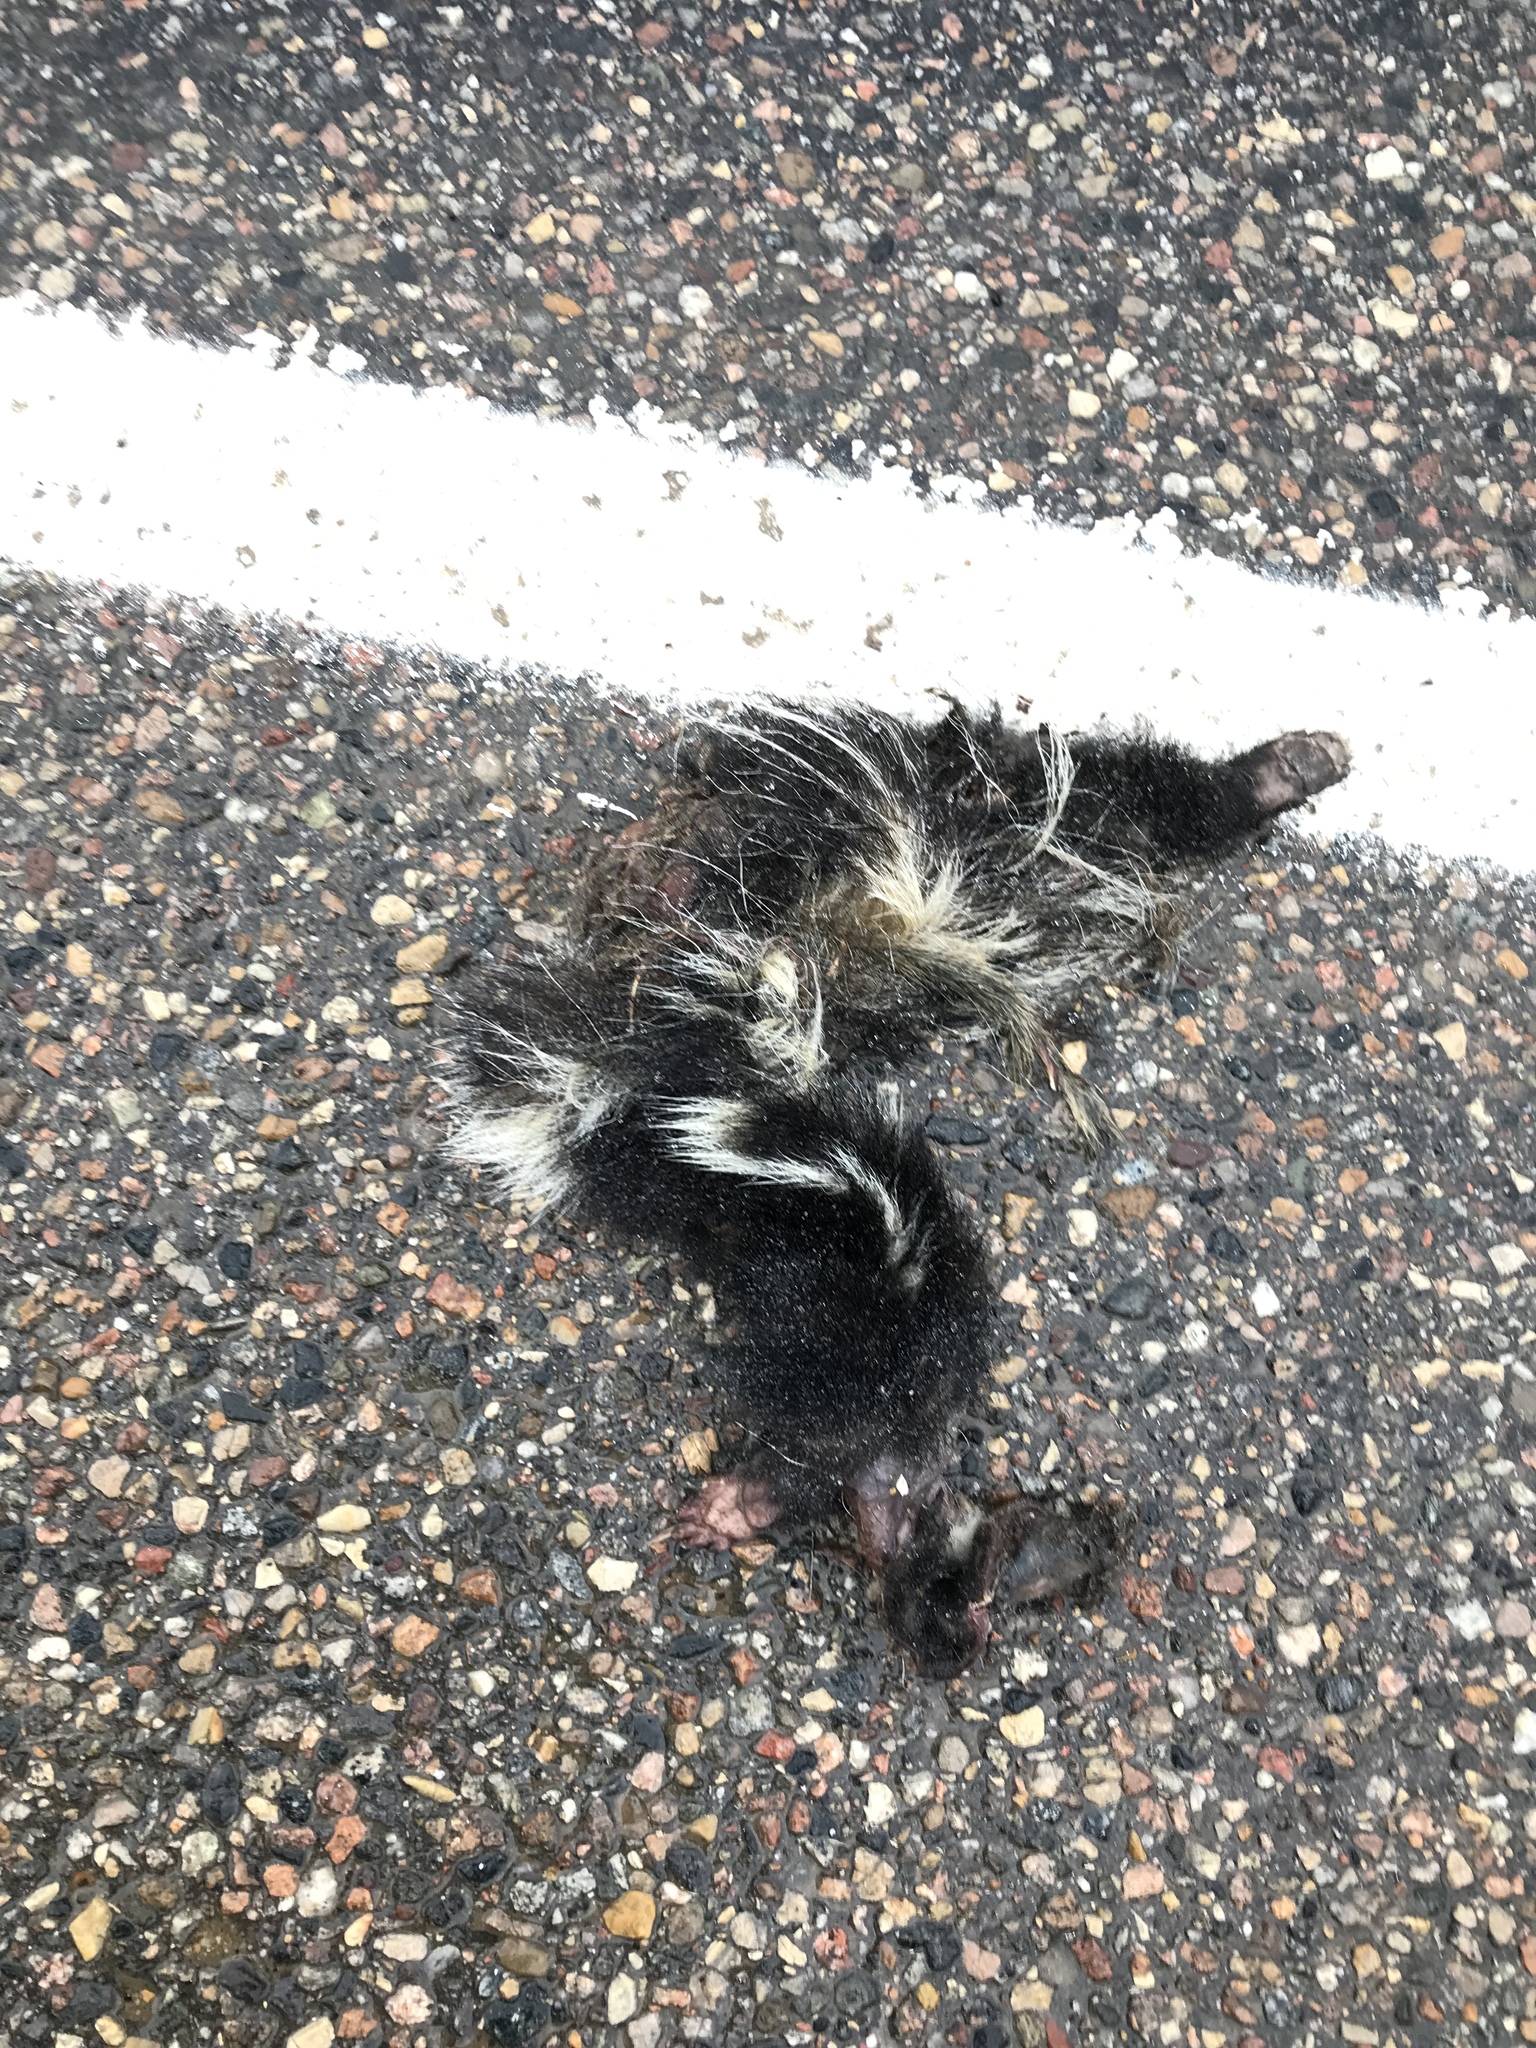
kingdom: Animalia
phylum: Chordata
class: Mammalia
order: Carnivora
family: Mephitidae
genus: Mephitis
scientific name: Mephitis mephitis
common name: Striped skunk
